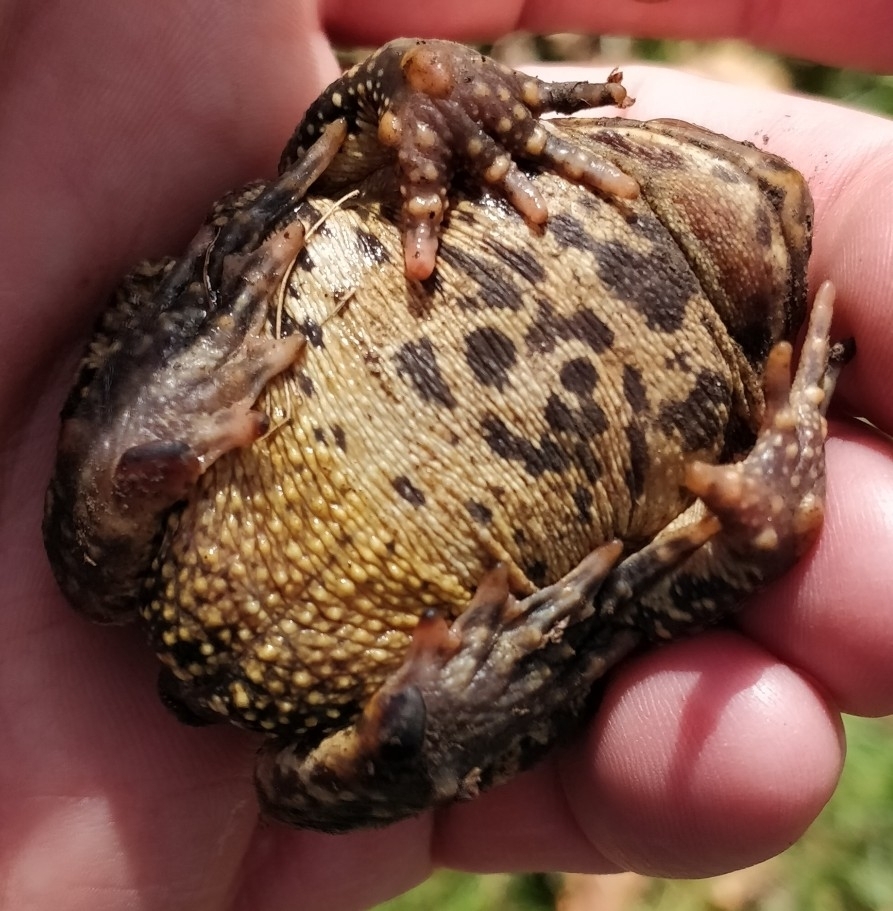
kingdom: Animalia
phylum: Chordata
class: Amphibia
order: Anura
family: Bufonidae
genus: Anaxyrus
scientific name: Anaxyrus americanus
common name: American toad
